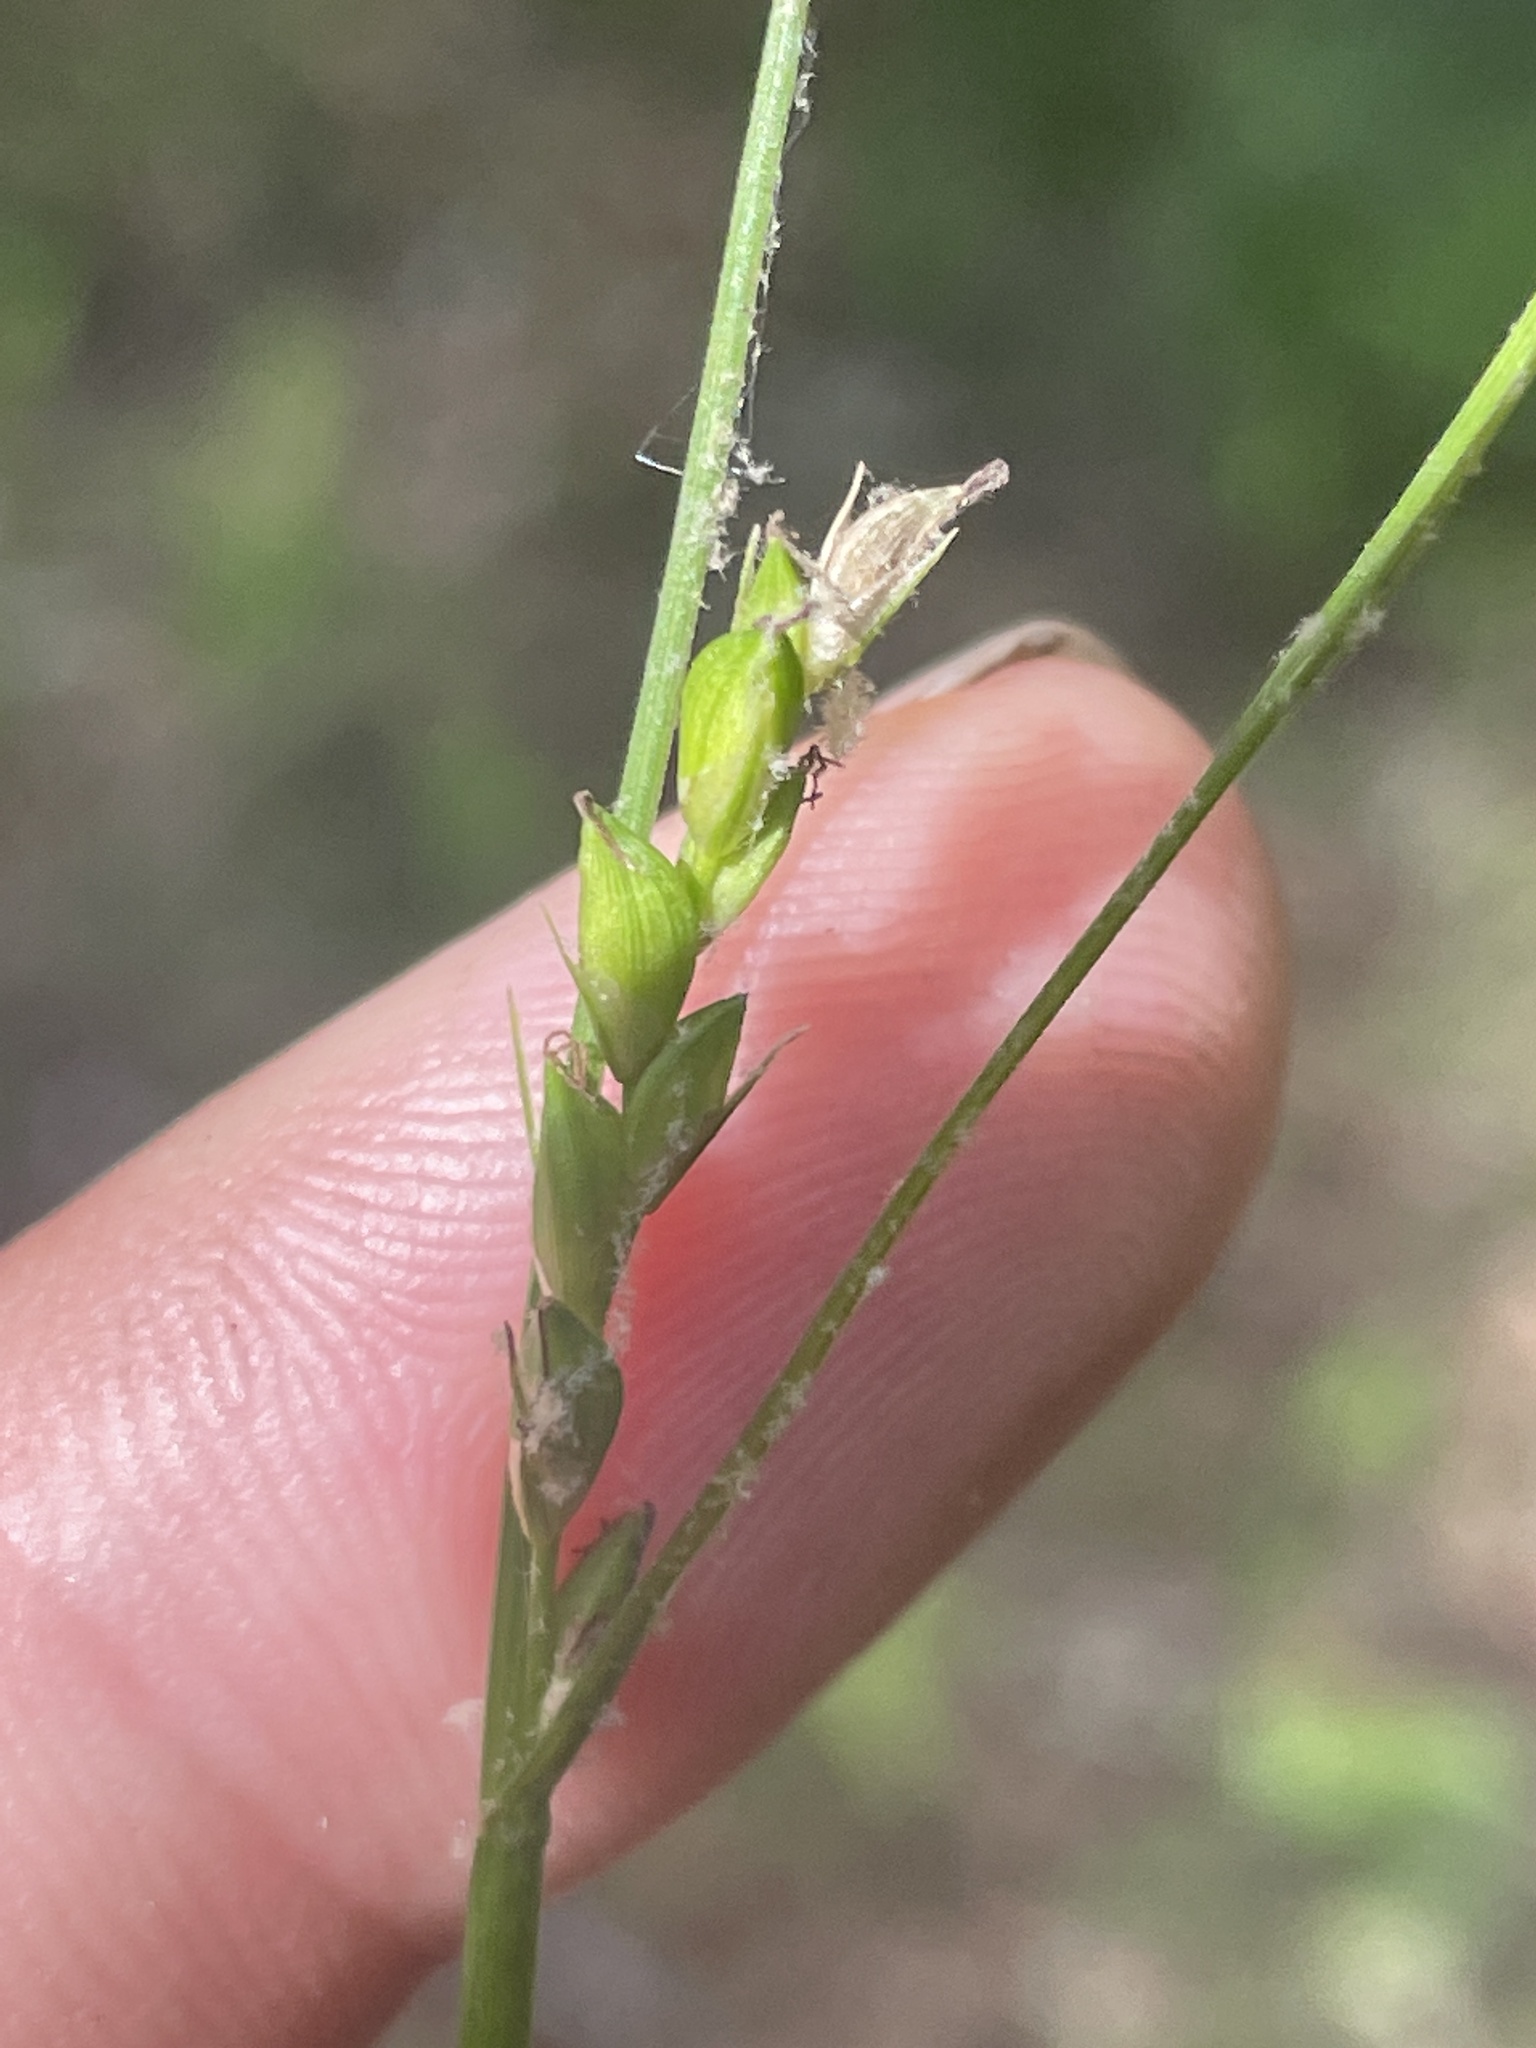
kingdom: Plantae
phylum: Tracheophyta
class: Liliopsida
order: Poales
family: Cyperaceae
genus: Carex
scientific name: Carex impressinervia
